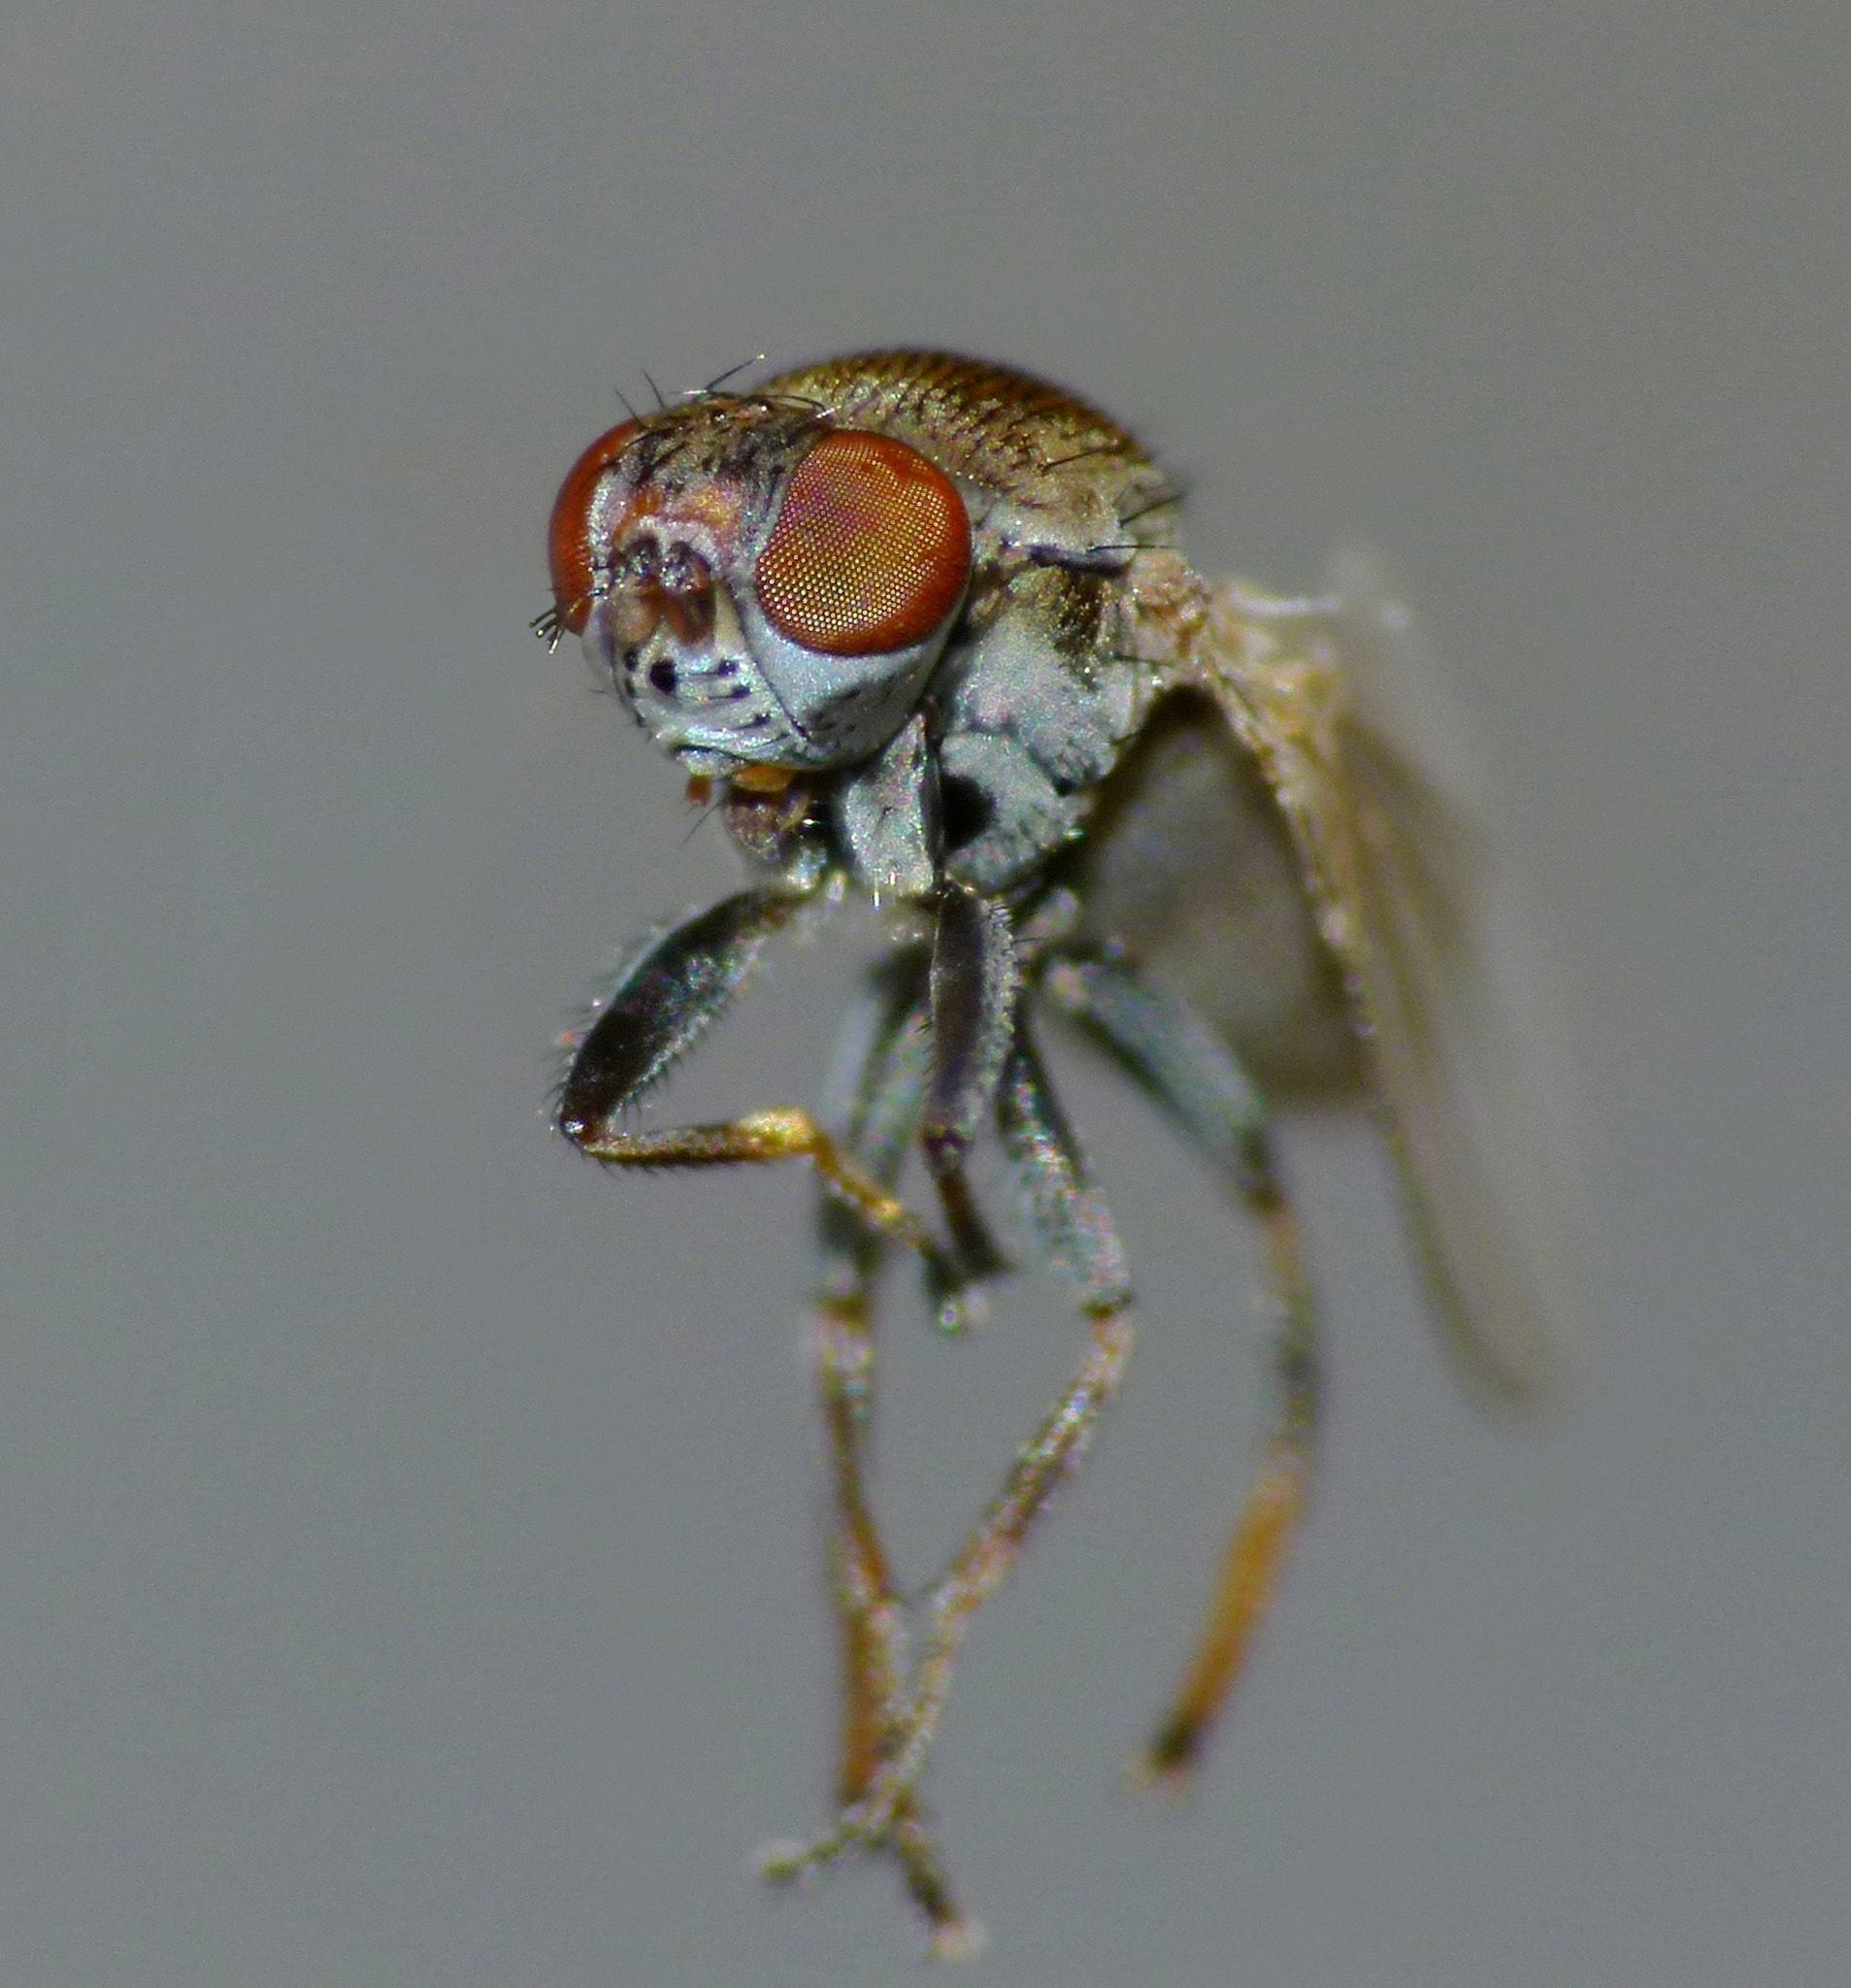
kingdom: Animalia
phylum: Arthropoda
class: Insecta
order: Diptera
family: Ephydridae
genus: Hecamede
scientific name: Hecamede granifera
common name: Shore fly
